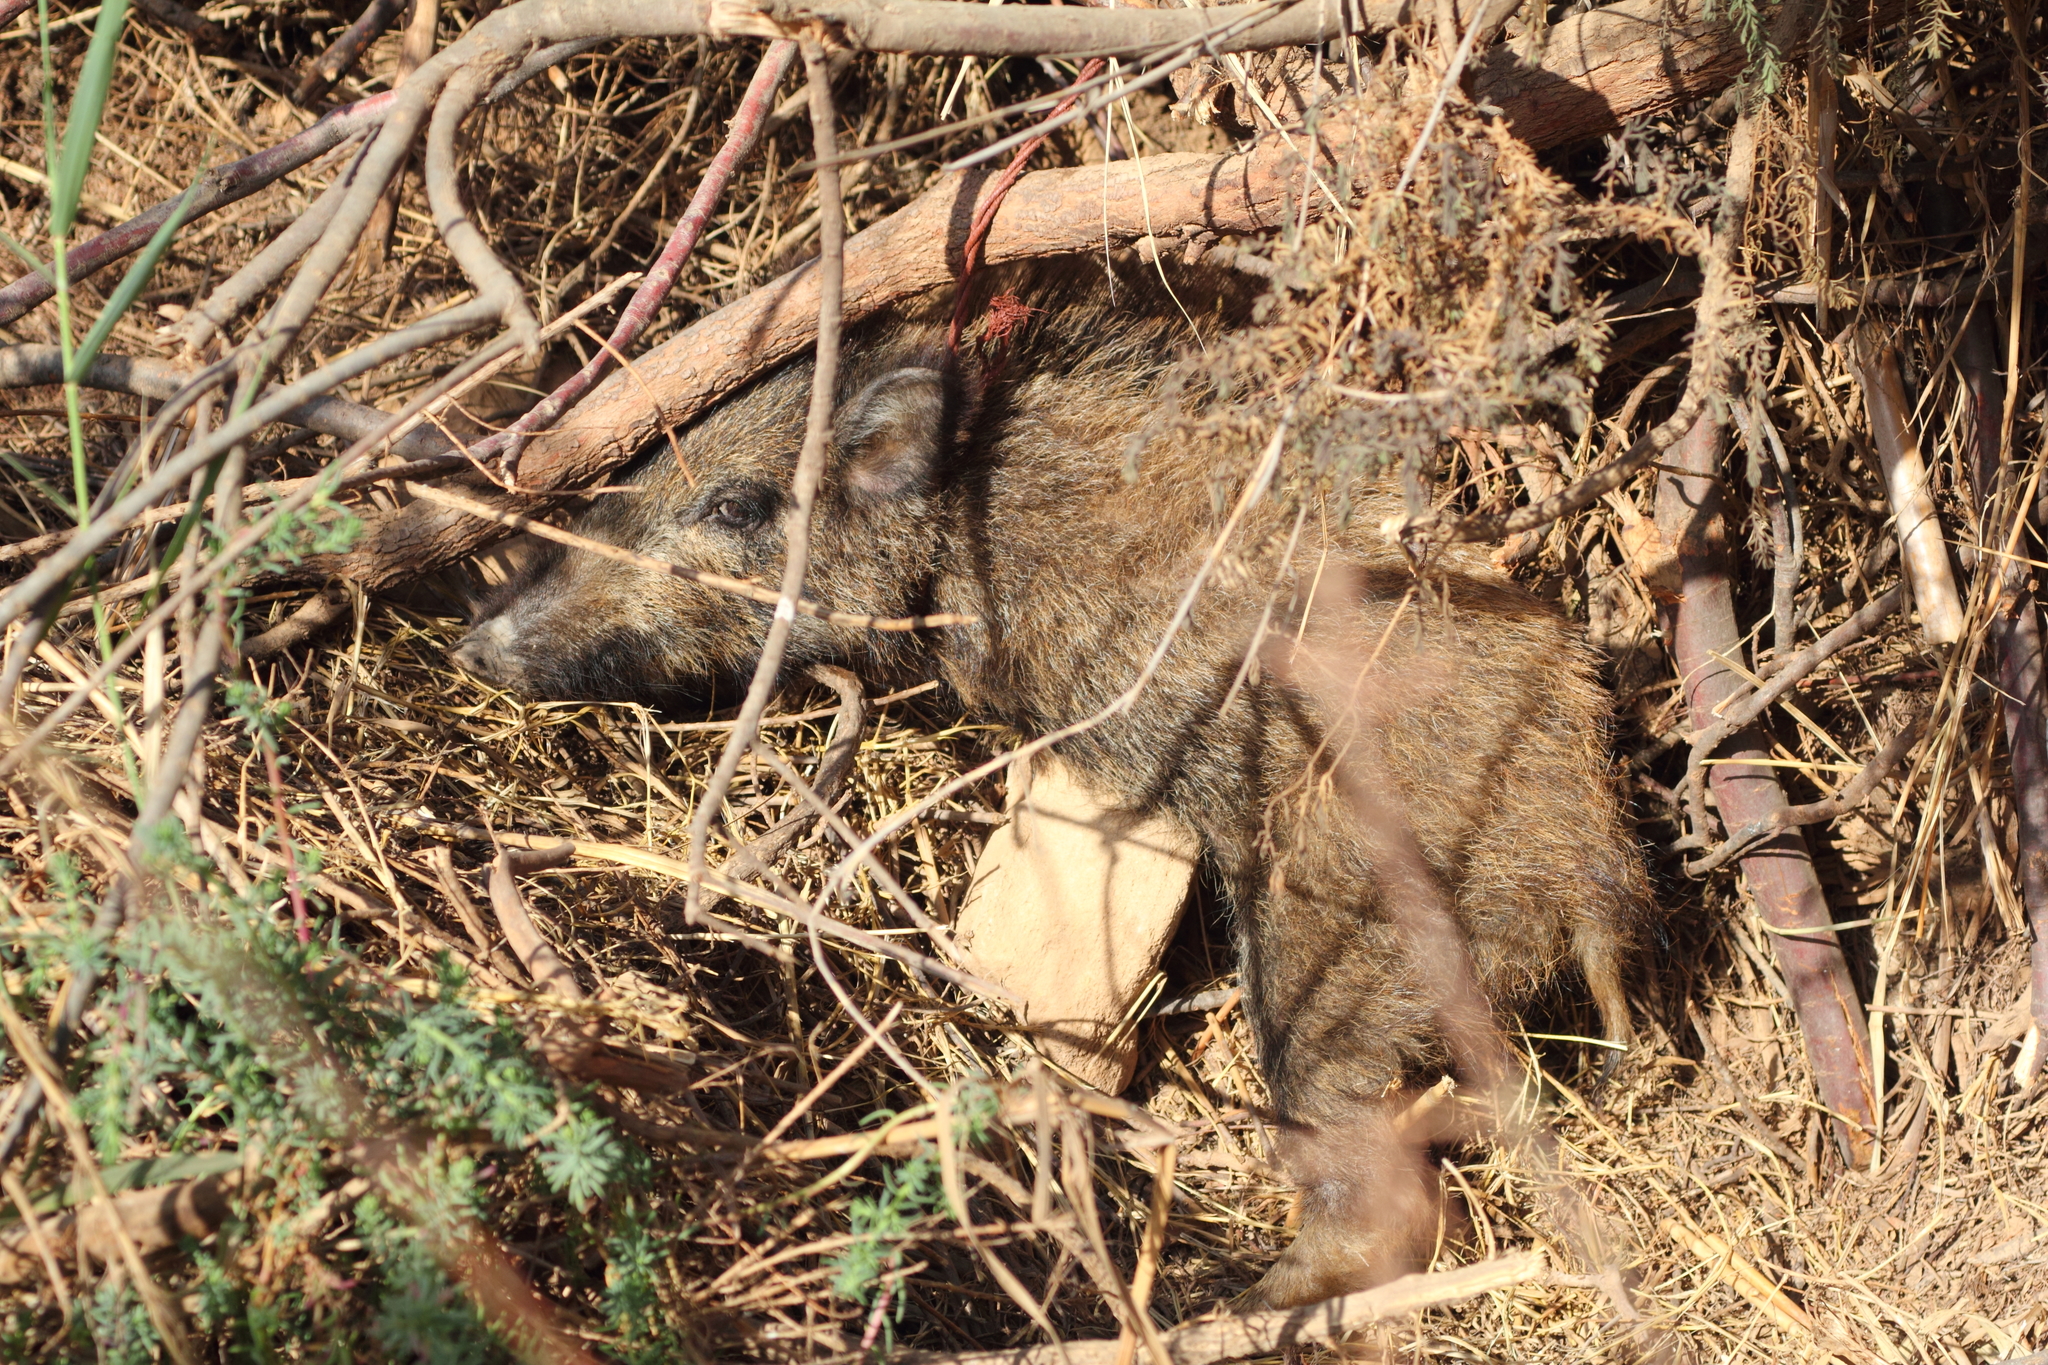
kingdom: Animalia
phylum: Chordata
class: Mammalia
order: Artiodactyla
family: Suidae
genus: Sus
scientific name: Sus scrofa
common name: Wild boar
